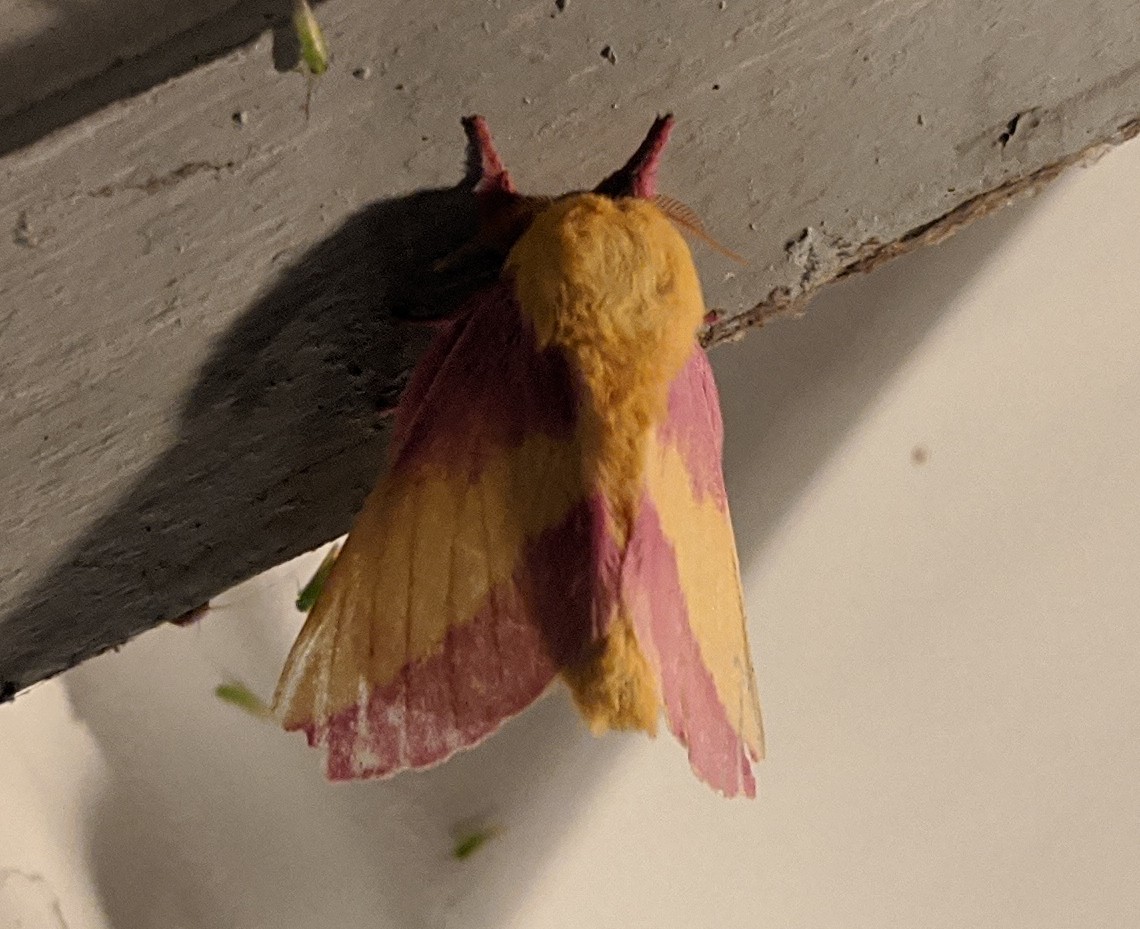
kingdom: Animalia
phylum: Arthropoda
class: Insecta
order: Lepidoptera
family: Saturniidae
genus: Dryocampa
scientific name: Dryocampa rubicunda
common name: Rosy maple moth
